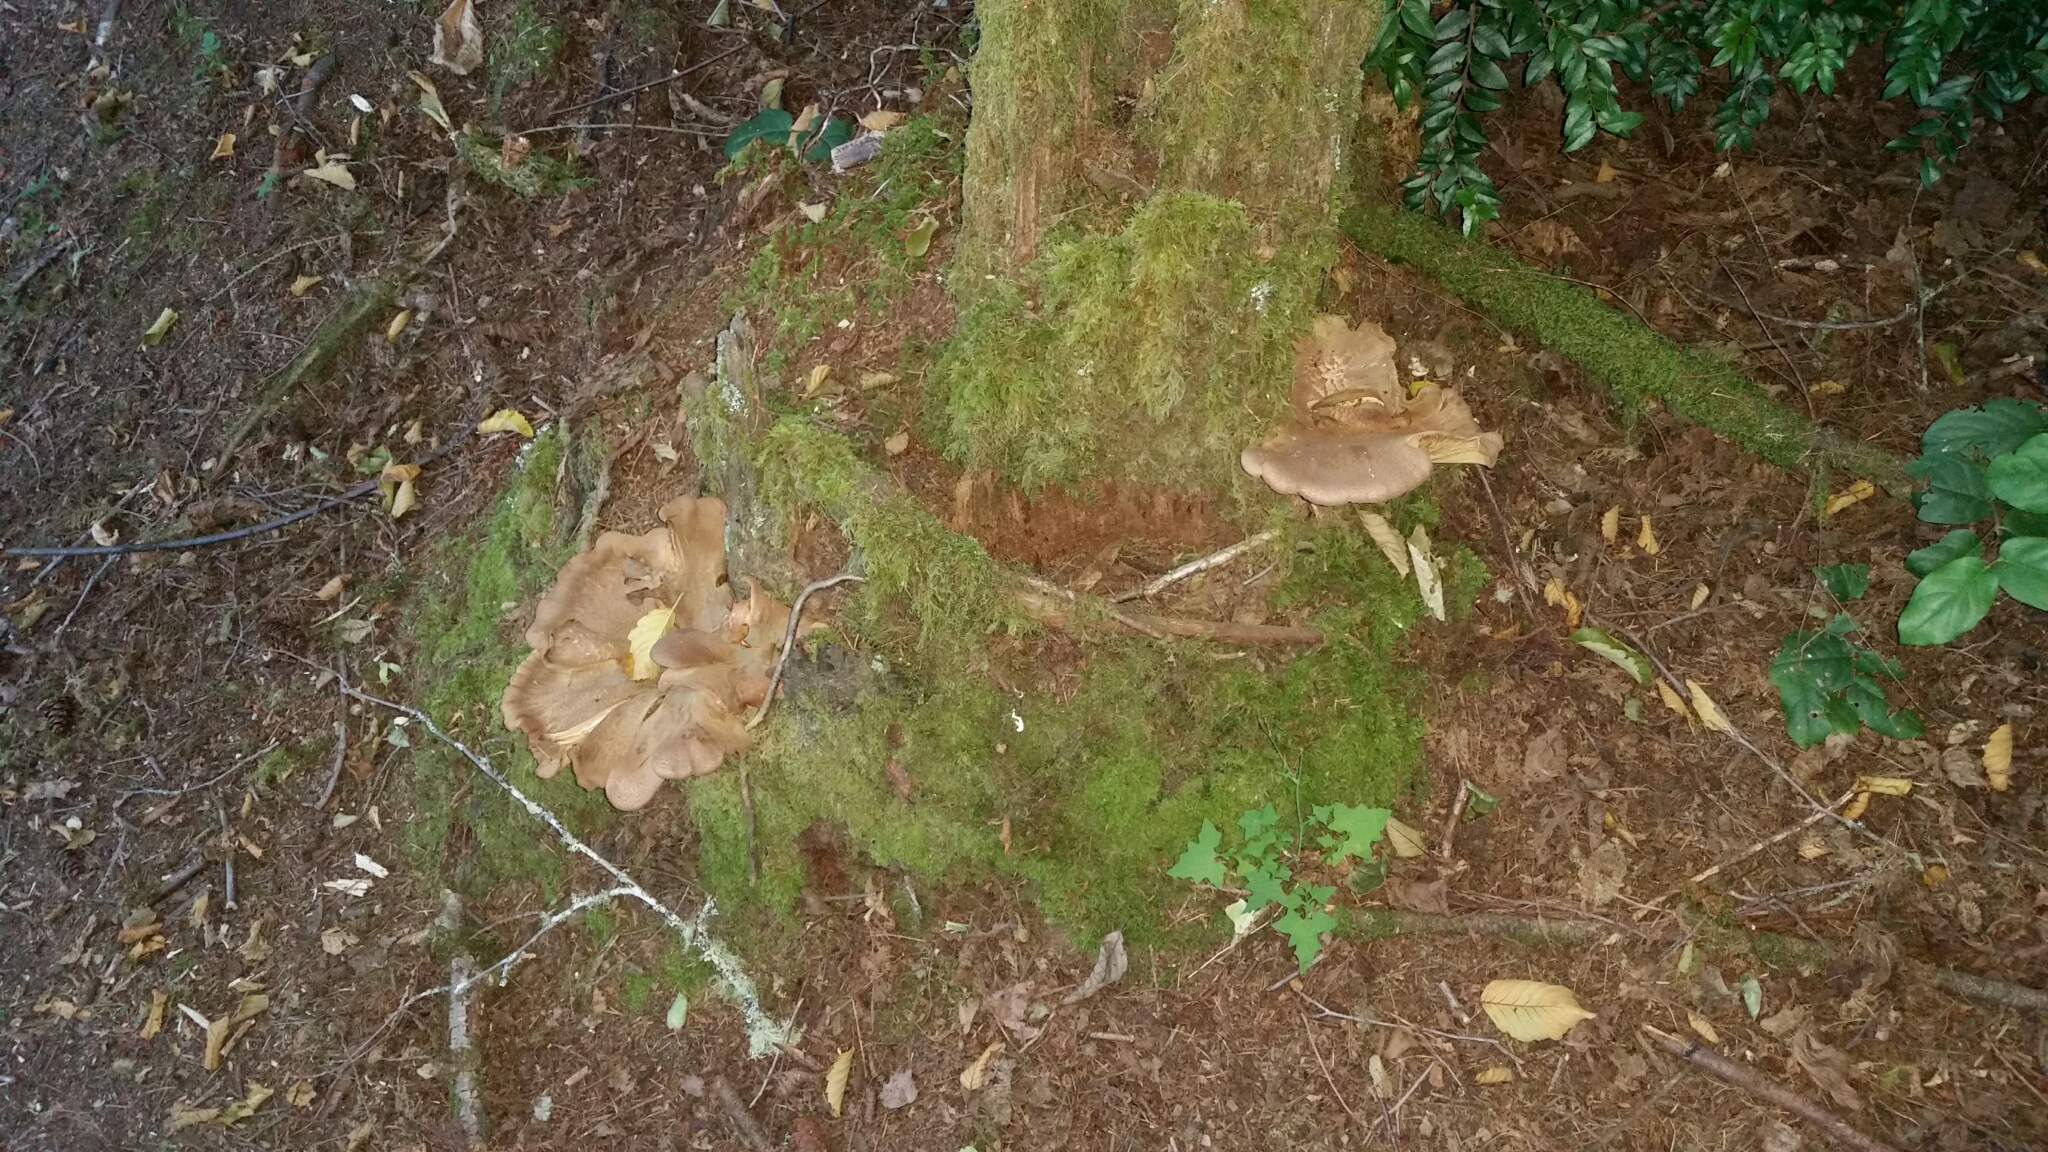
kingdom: Fungi
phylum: Basidiomycota
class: Agaricomycetes
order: Boletales
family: Tapinellaceae
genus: Tapinella
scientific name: Tapinella atrotomentosa
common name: Velvet rollrim
